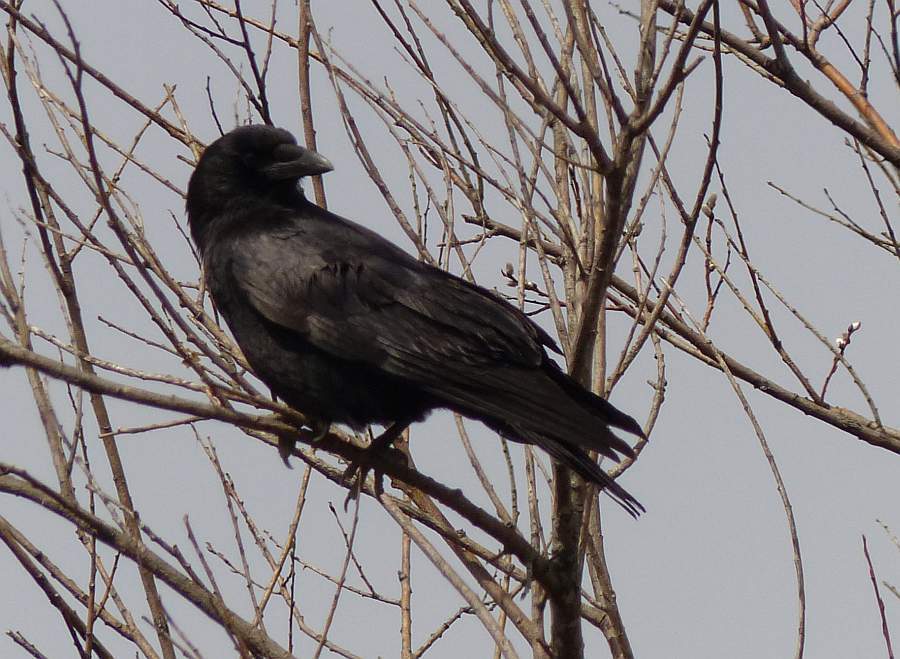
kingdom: Animalia
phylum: Chordata
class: Aves
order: Passeriformes
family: Corvidae
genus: Corvus
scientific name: Corvus brachyrhynchos
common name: American crow
